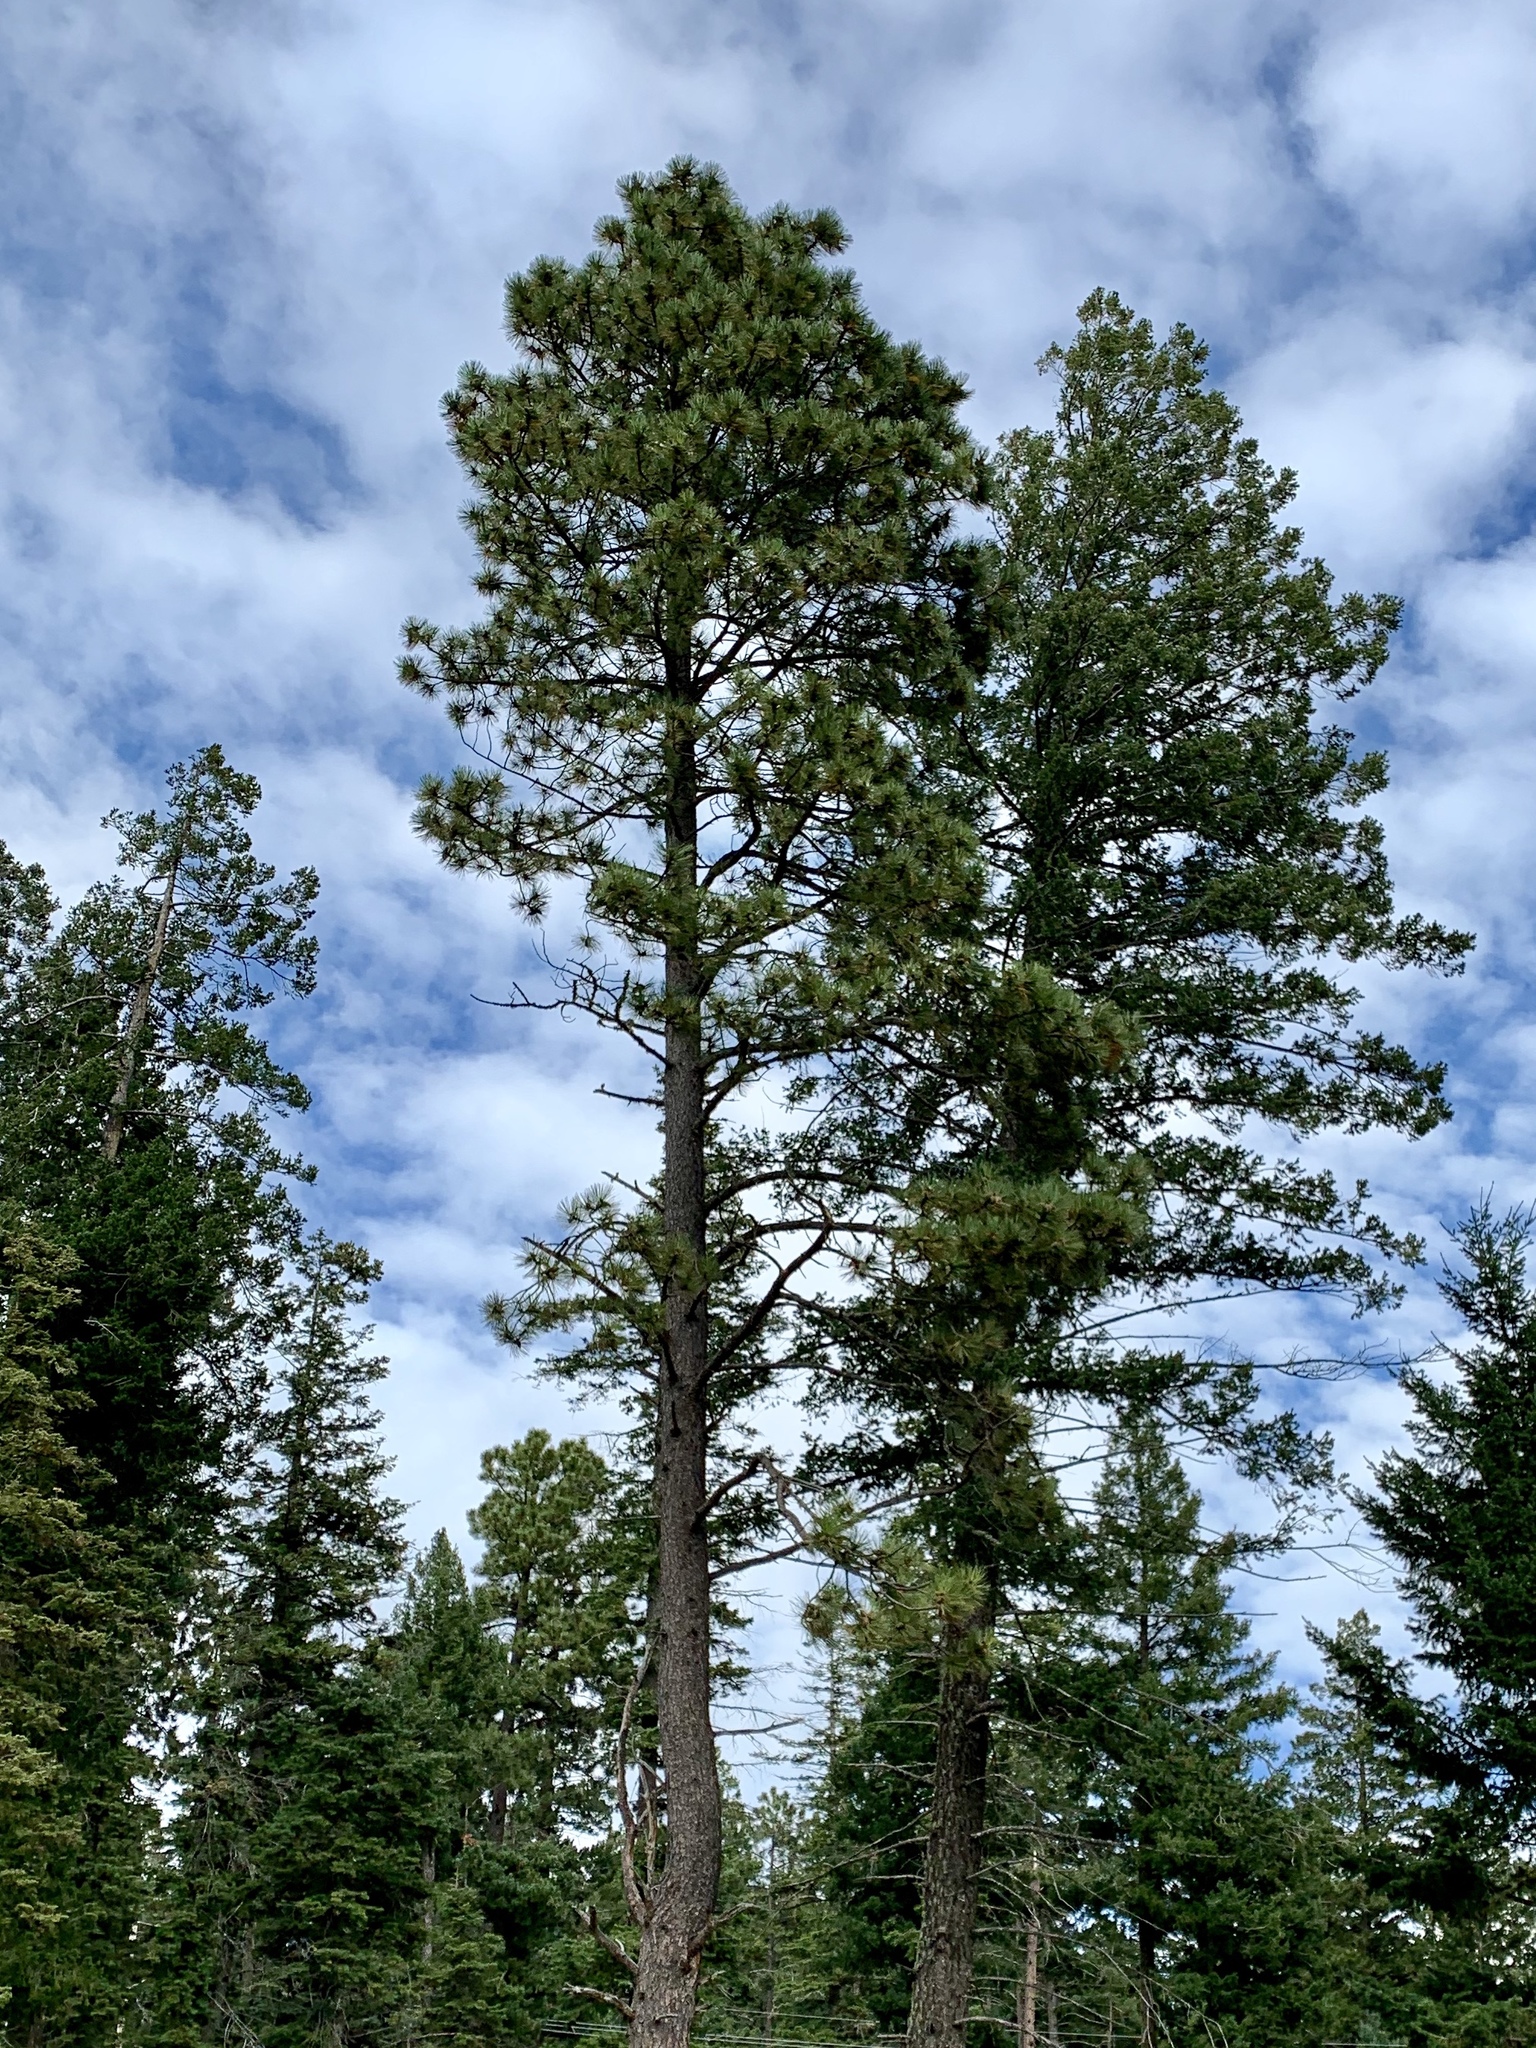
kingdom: Plantae
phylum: Tracheophyta
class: Pinopsida
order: Pinales
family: Pinaceae
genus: Pinus
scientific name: Pinus ponderosa
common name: Western yellow-pine
